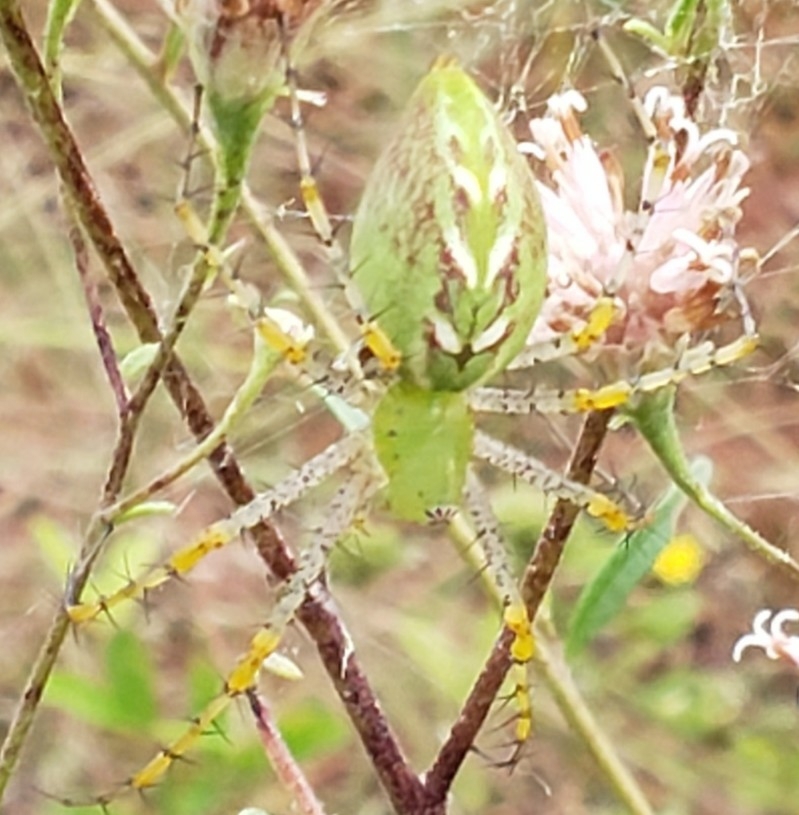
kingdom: Animalia
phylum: Arthropoda
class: Arachnida
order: Araneae
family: Oxyopidae
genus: Peucetia
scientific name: Peucetia viridans
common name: Lynx spiders
